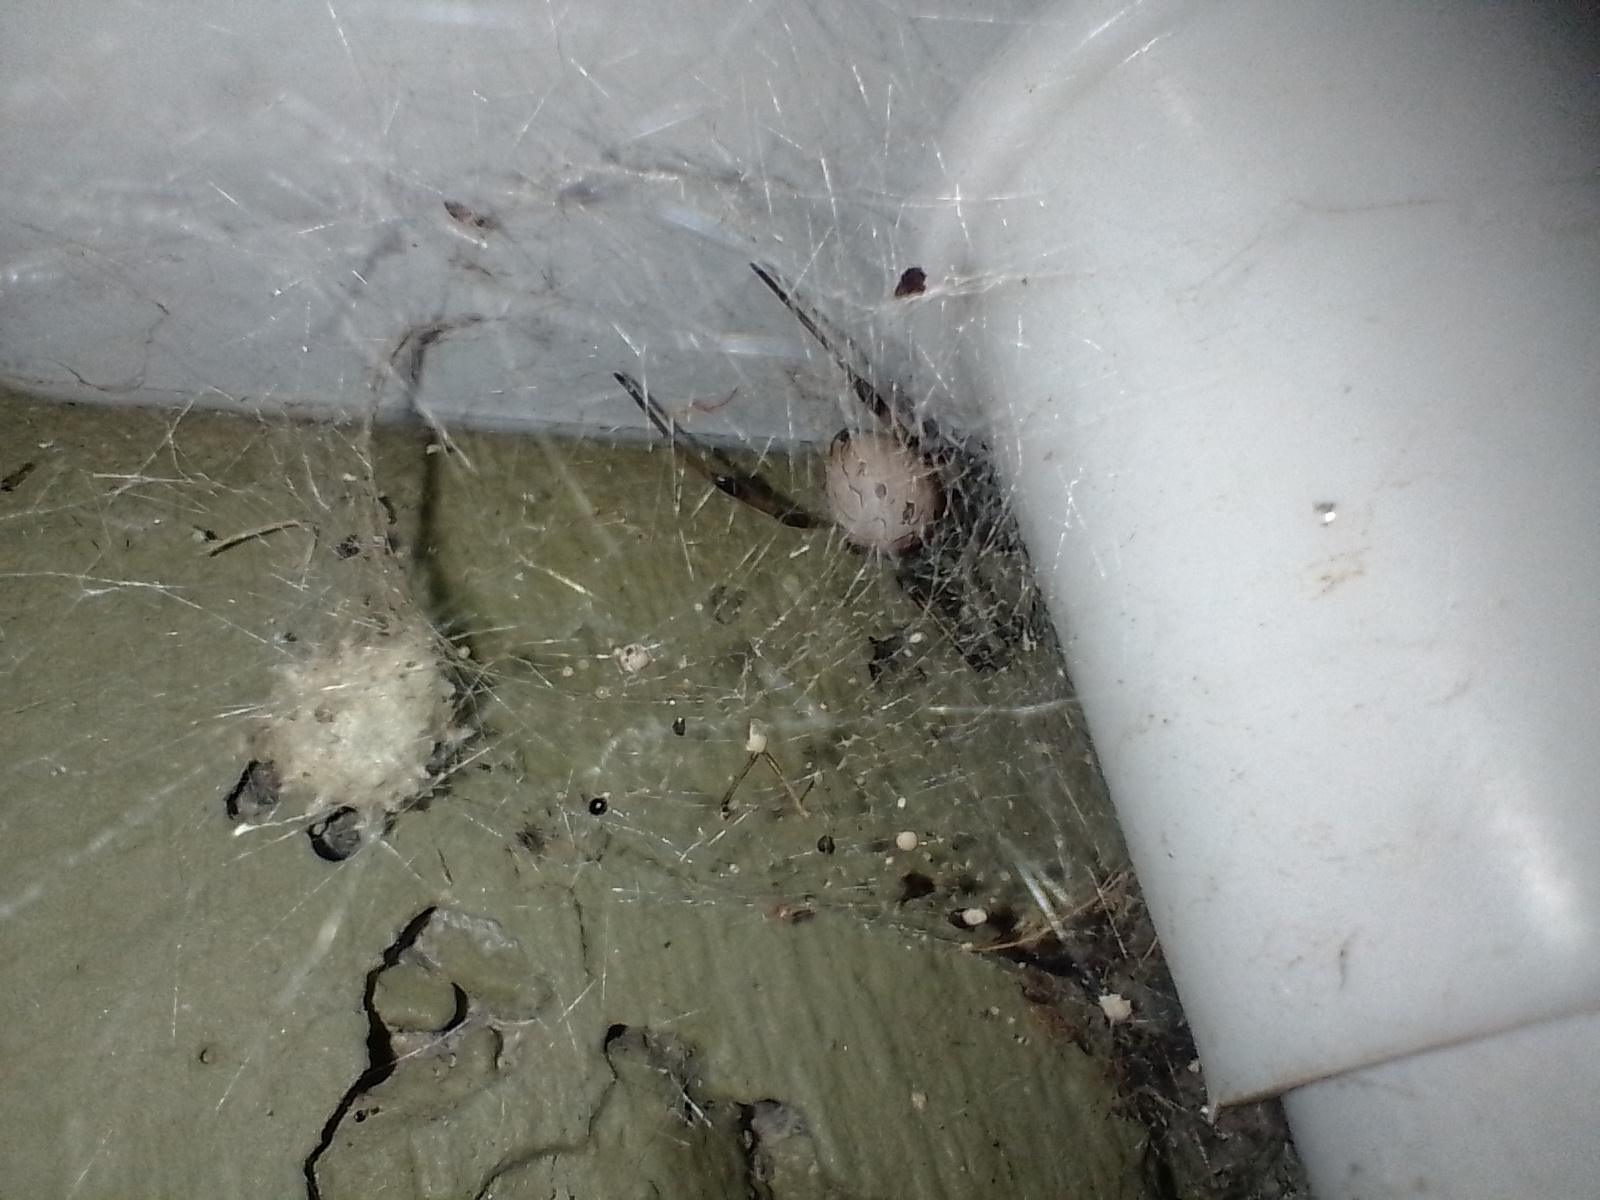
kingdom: Animalia
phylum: Arthropoda
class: Arachnida
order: Araneae
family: Theridiidae
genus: Latrodectus
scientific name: Latrodectus geometricus
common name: Brown widow spider
